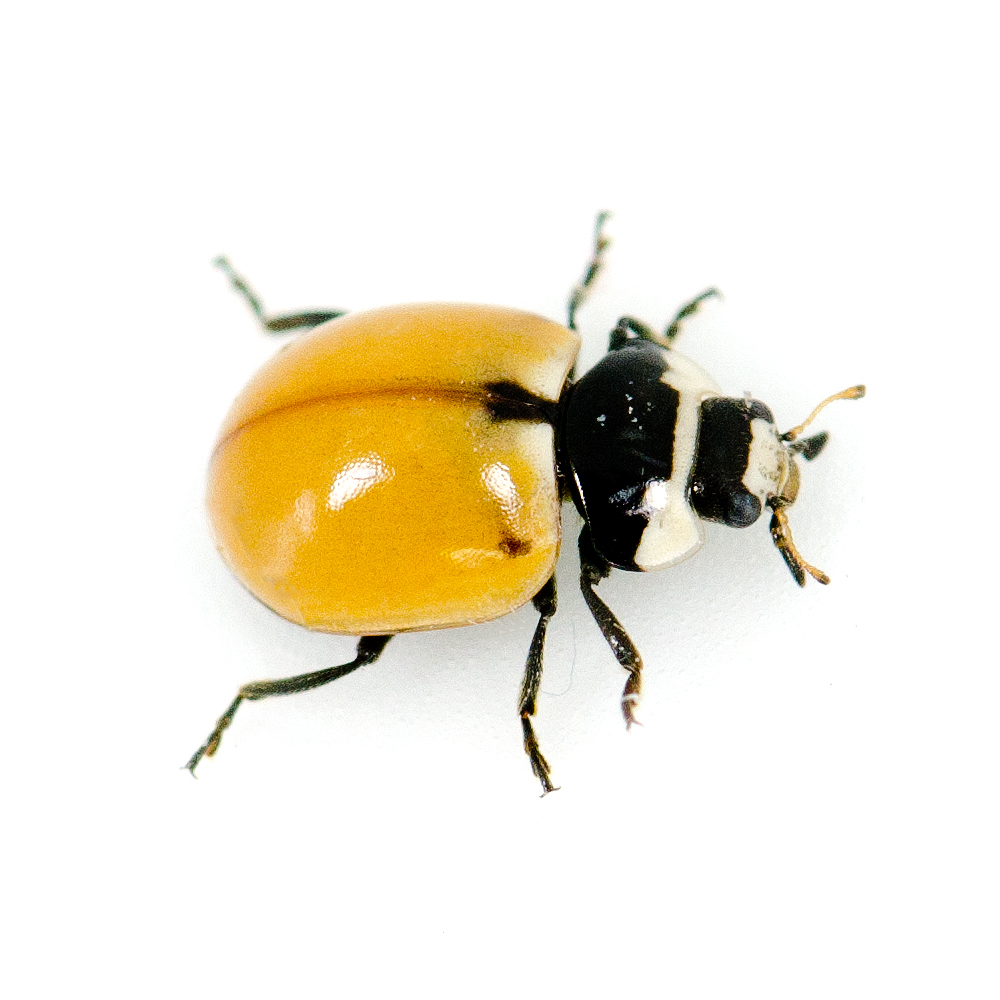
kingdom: Animalia
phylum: Arthropoda
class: Insecta
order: Coleoptera
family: Coccinellidae
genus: Coccinella
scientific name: Coccinella trifasciata
